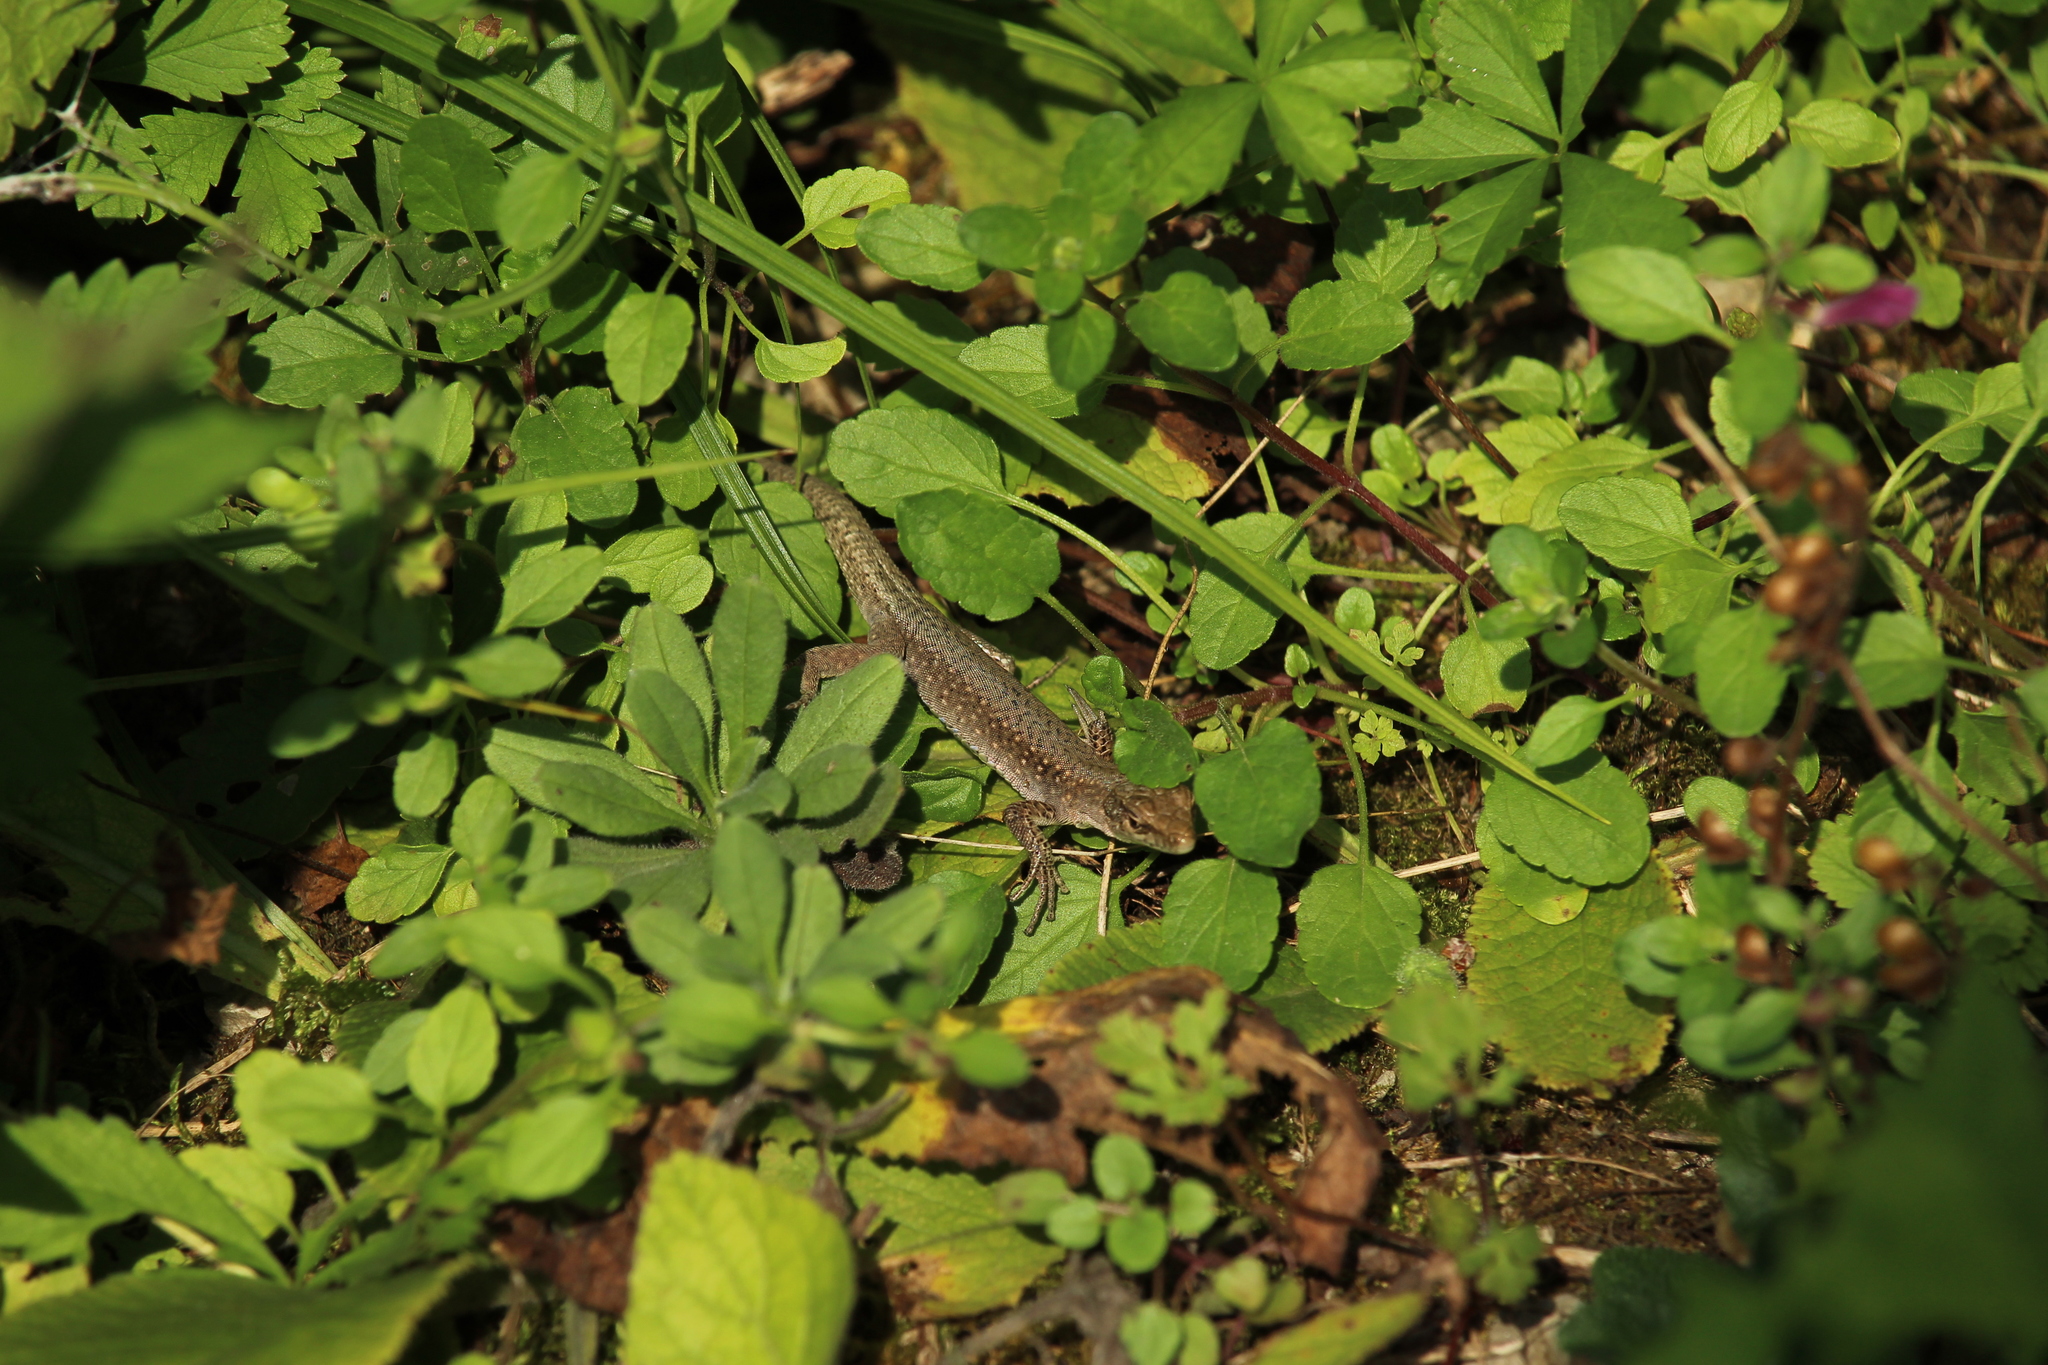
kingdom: Animalia
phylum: Chordata
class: Squamata
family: Lacertidae
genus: Darevskia
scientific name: Darevskia brauneri
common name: Brauner's rock lizard
